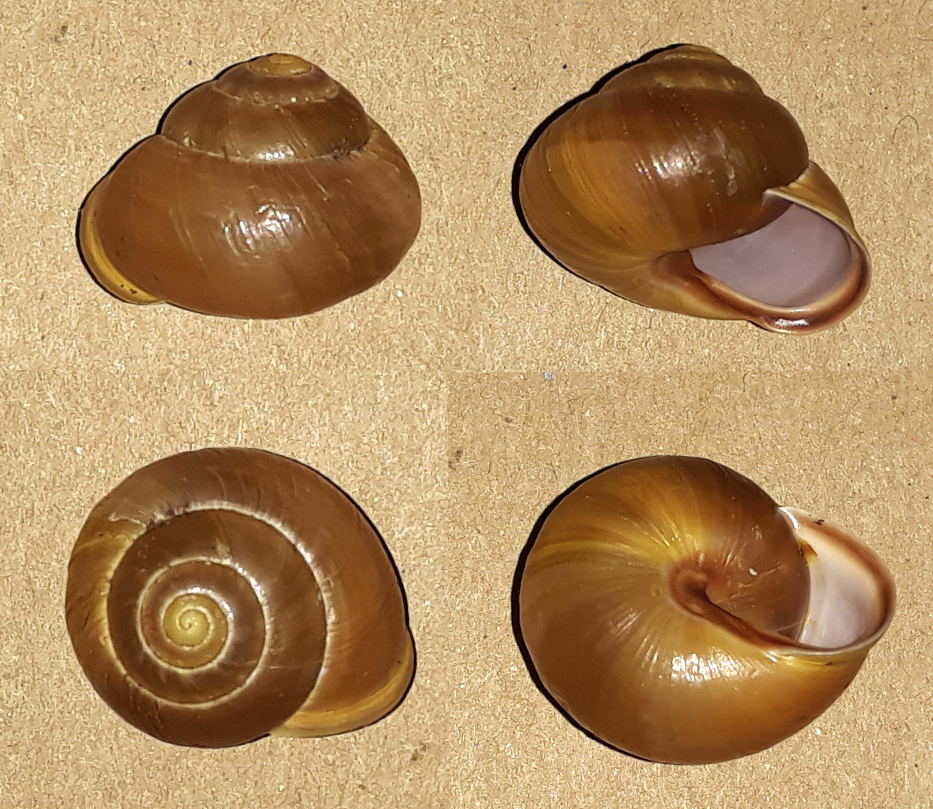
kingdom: Animalia
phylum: Mollusca
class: Gastropoda
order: Stylommatophora
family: Helicidae
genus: Cepaea
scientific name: Cepaea hortensis
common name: White-lip gardensnail
